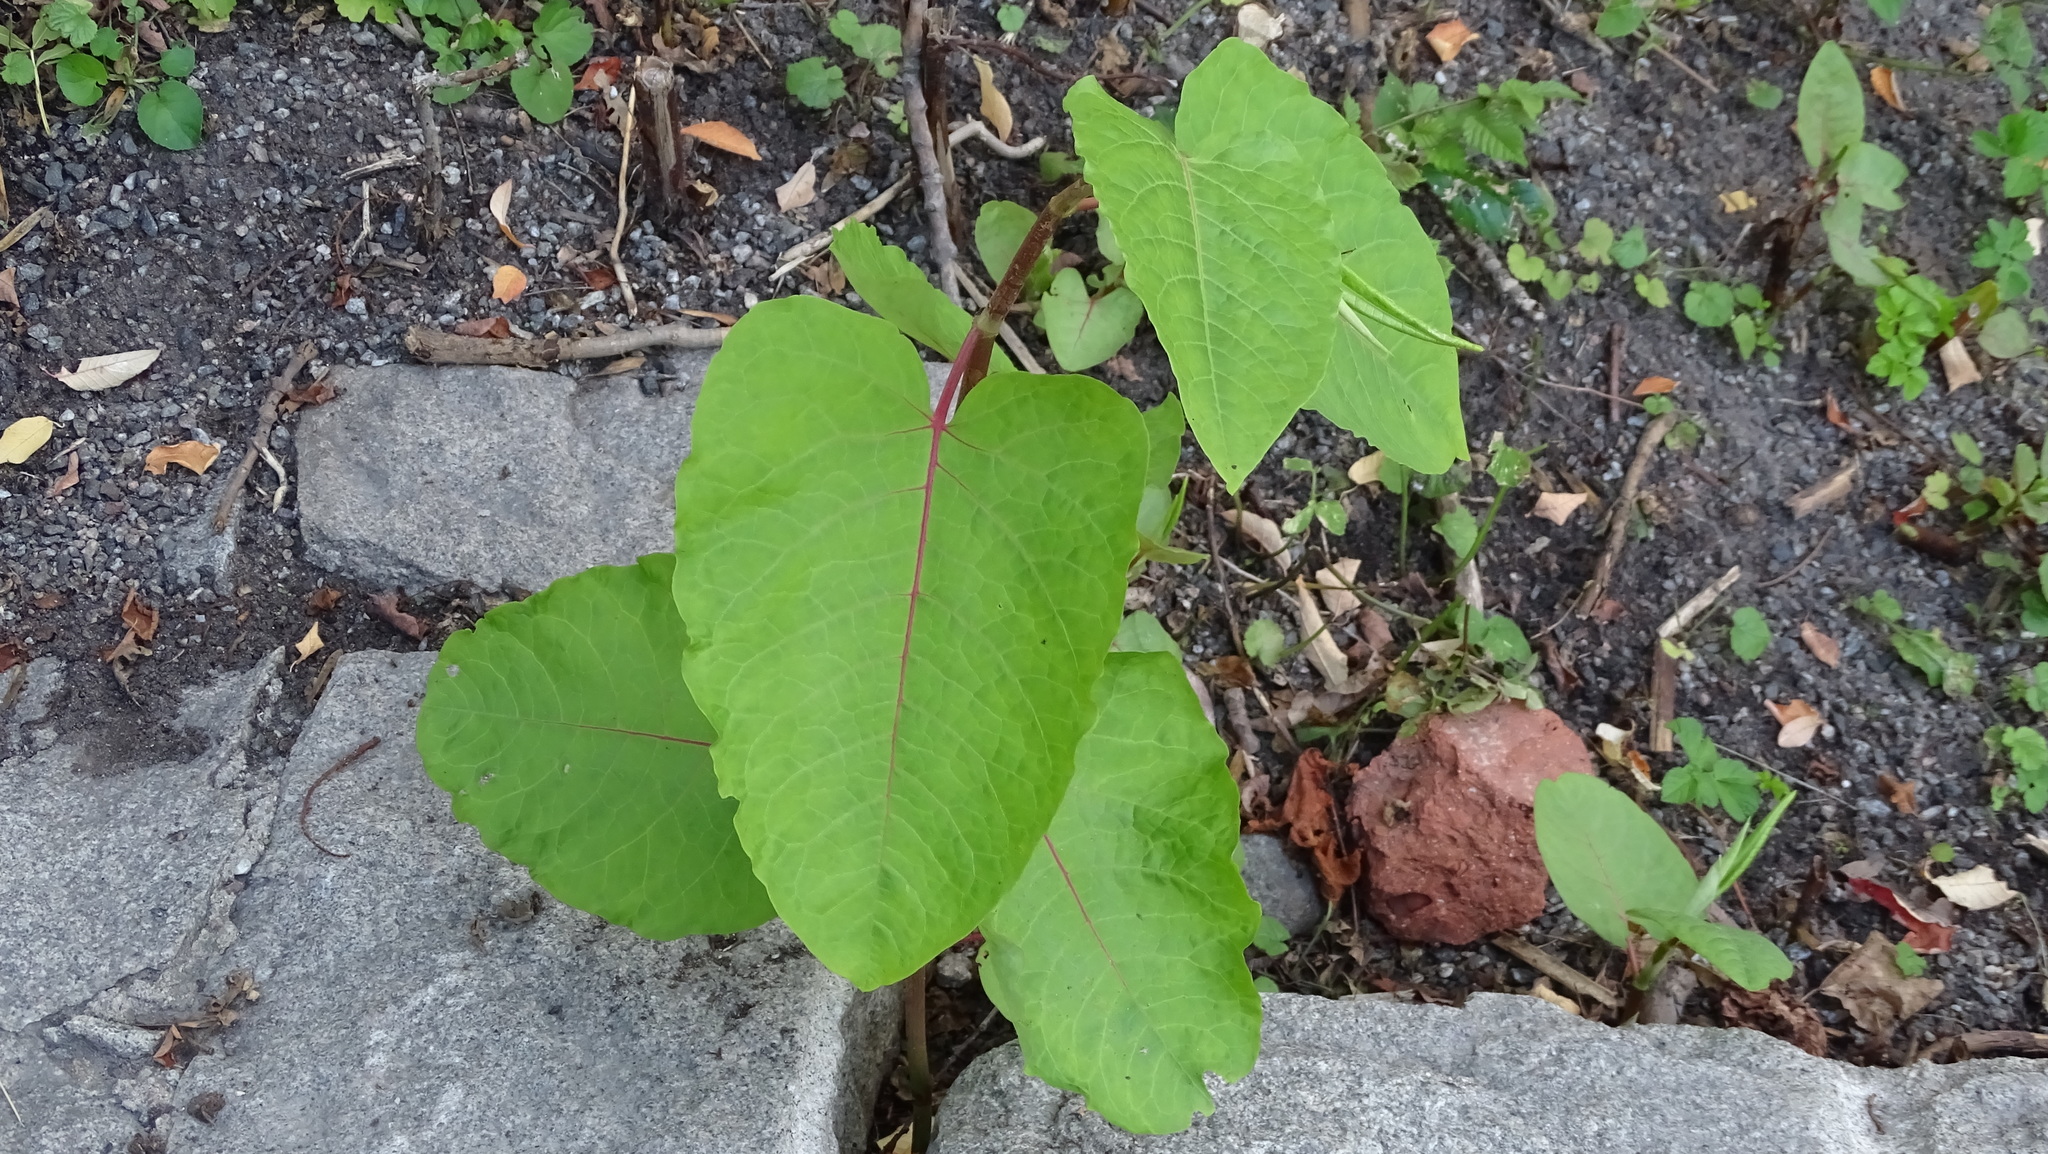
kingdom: Plantae
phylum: Tracheophyta
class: Magnoliopsida
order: Caryophyllales
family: Polygonaceae
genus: Reynoutria
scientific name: Reynoutria sachalinensis
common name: Giant knotweed
